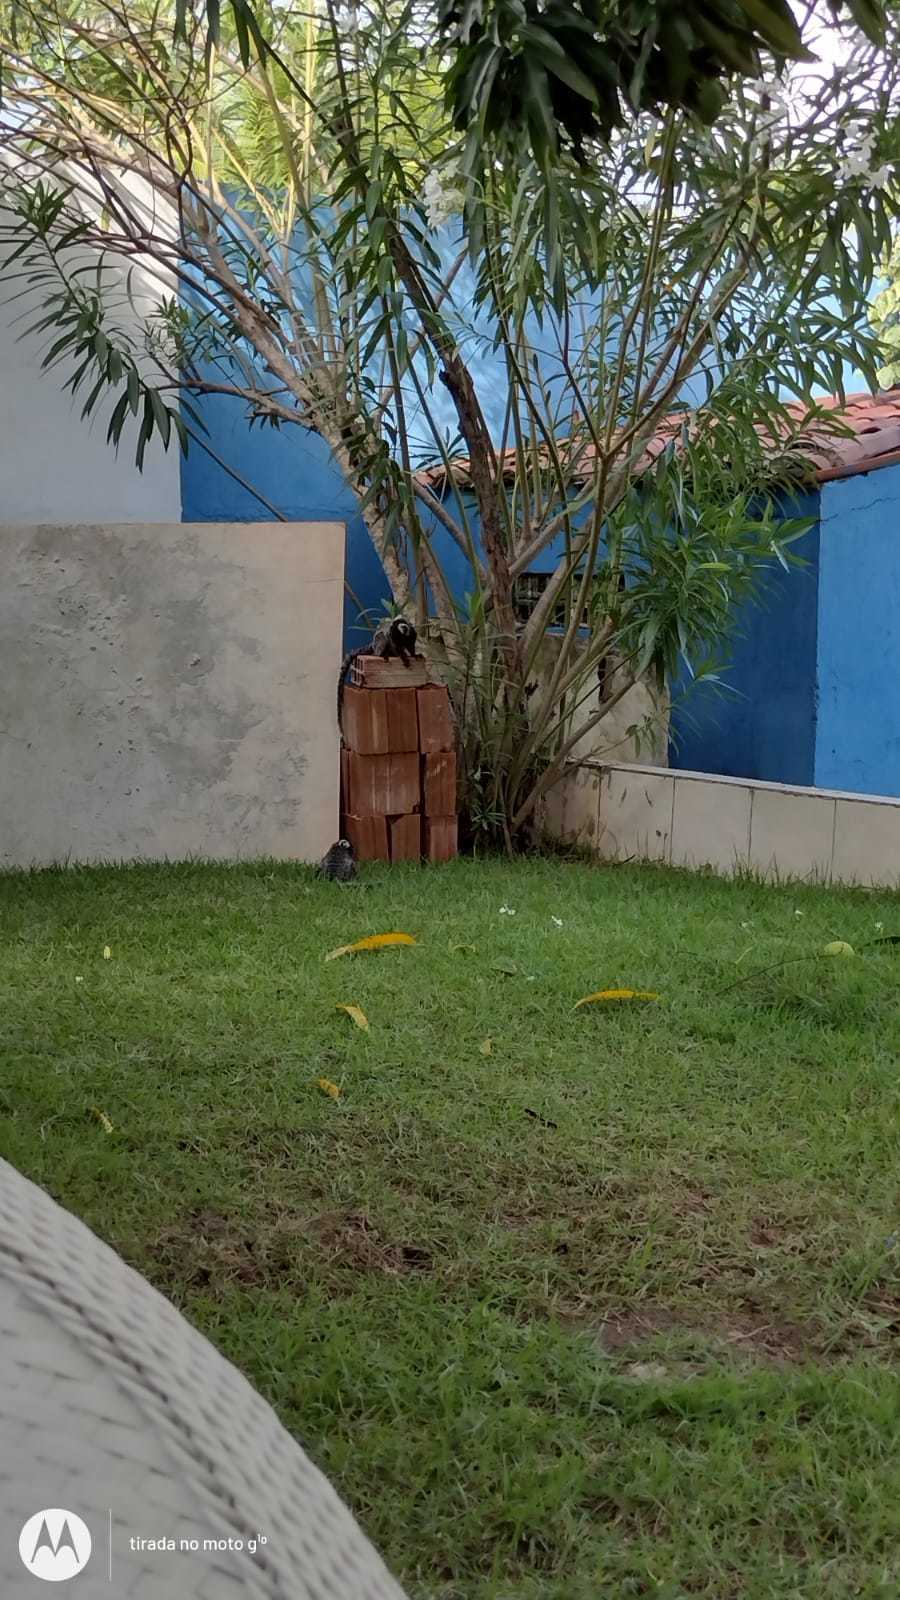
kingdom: Animalia
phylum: Chordata
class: Mammalia
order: Primates
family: Callitrichidae
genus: Callithrix
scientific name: Callithrix jacchus
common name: Common marmoset
